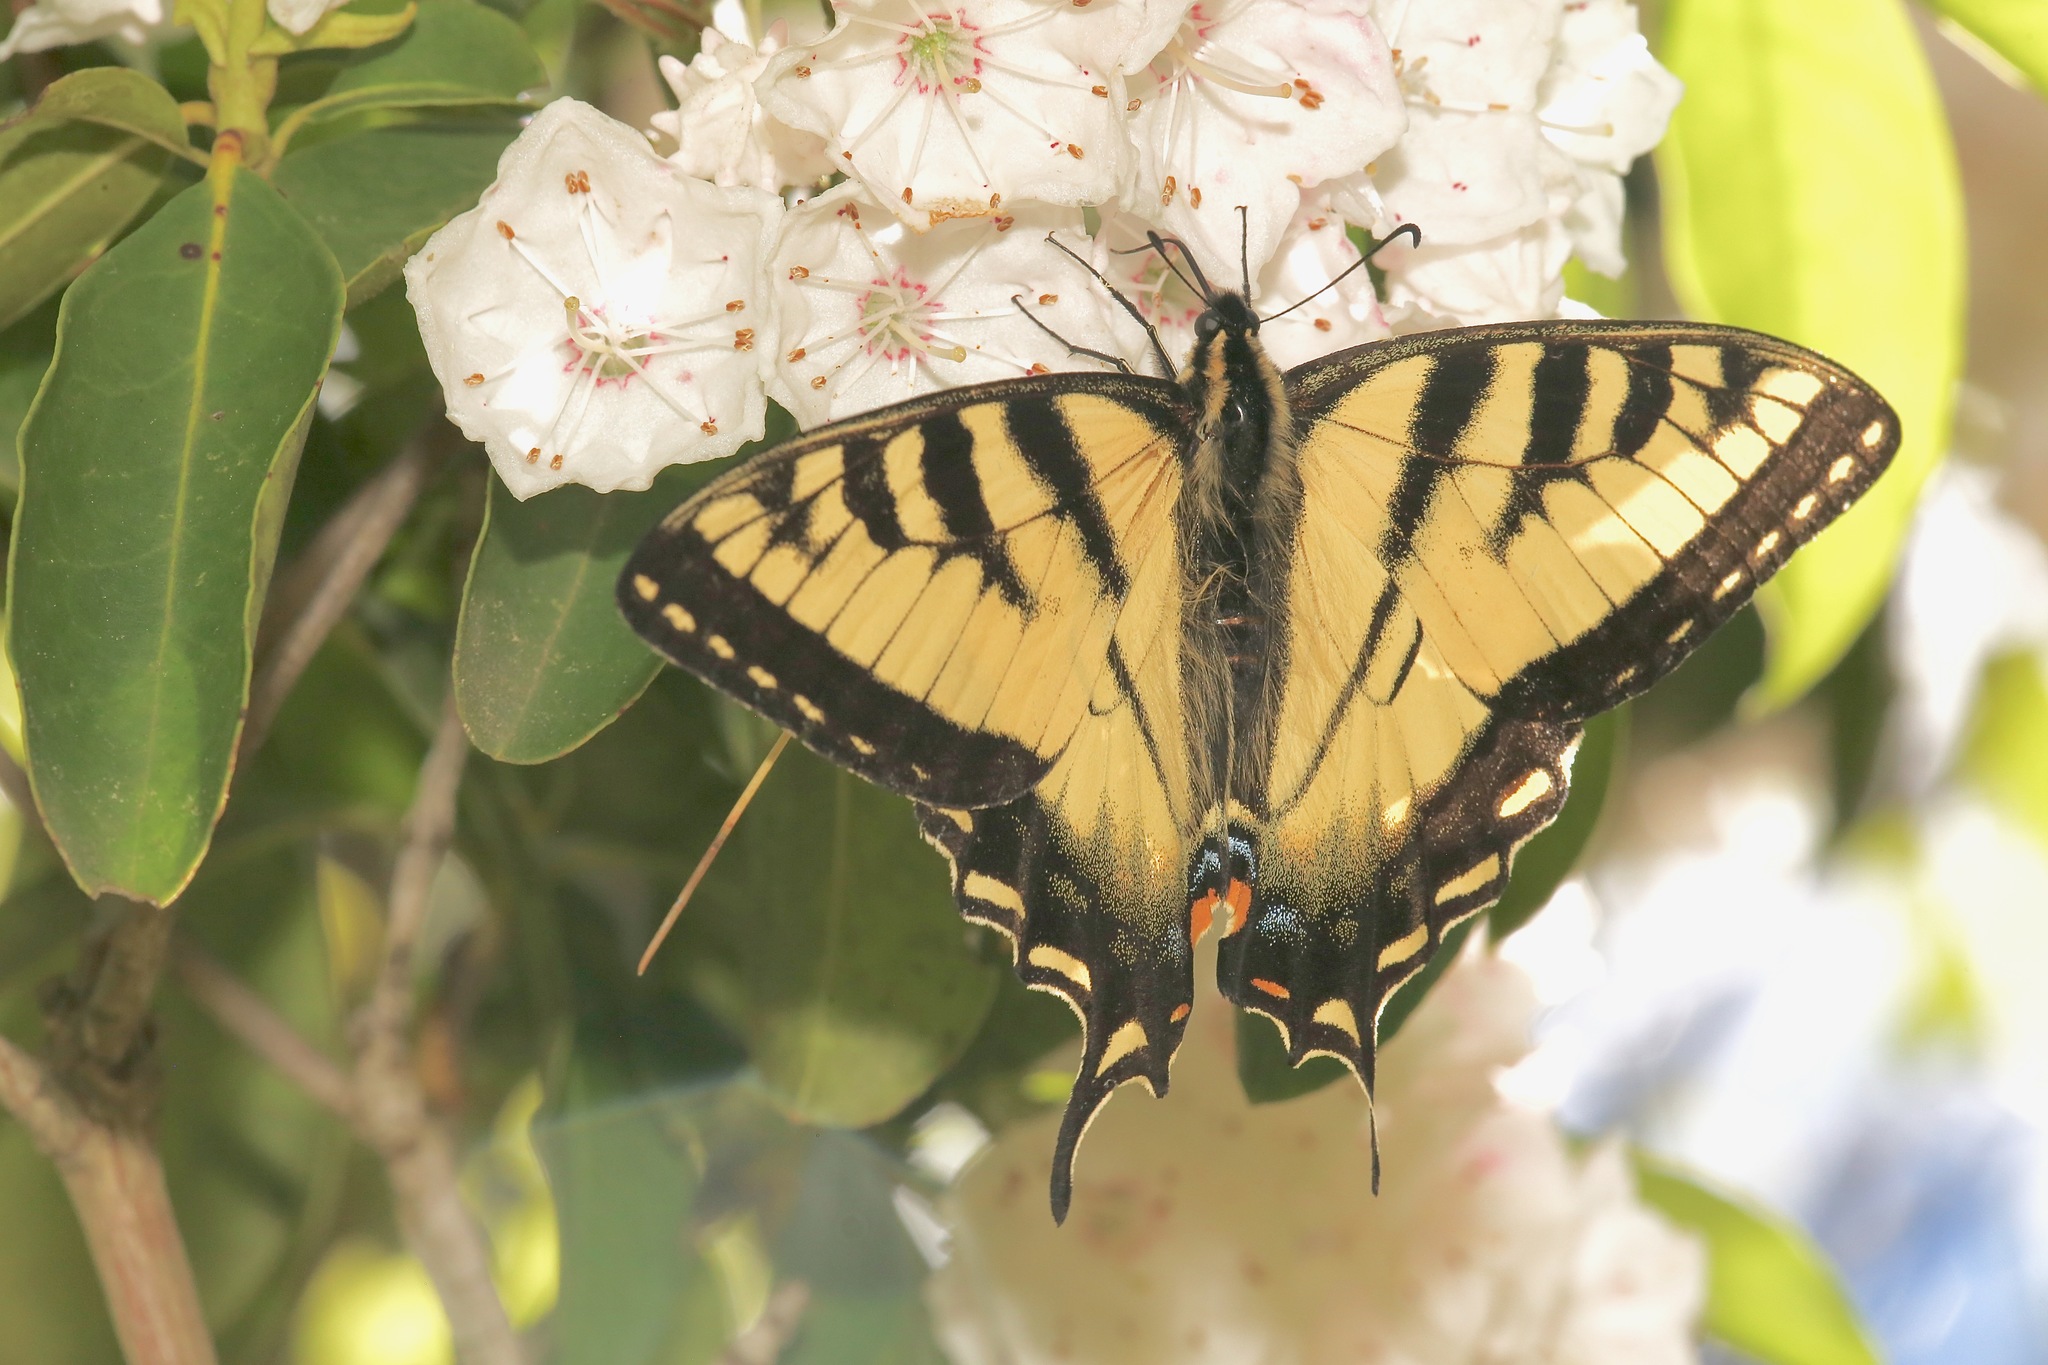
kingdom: Animalia
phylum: Arthropoda
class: Insecta
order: Lepidoptera
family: Papilionidae
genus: Papilio
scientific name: Papilio canadensis
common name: Canadian tiger swallowtail
